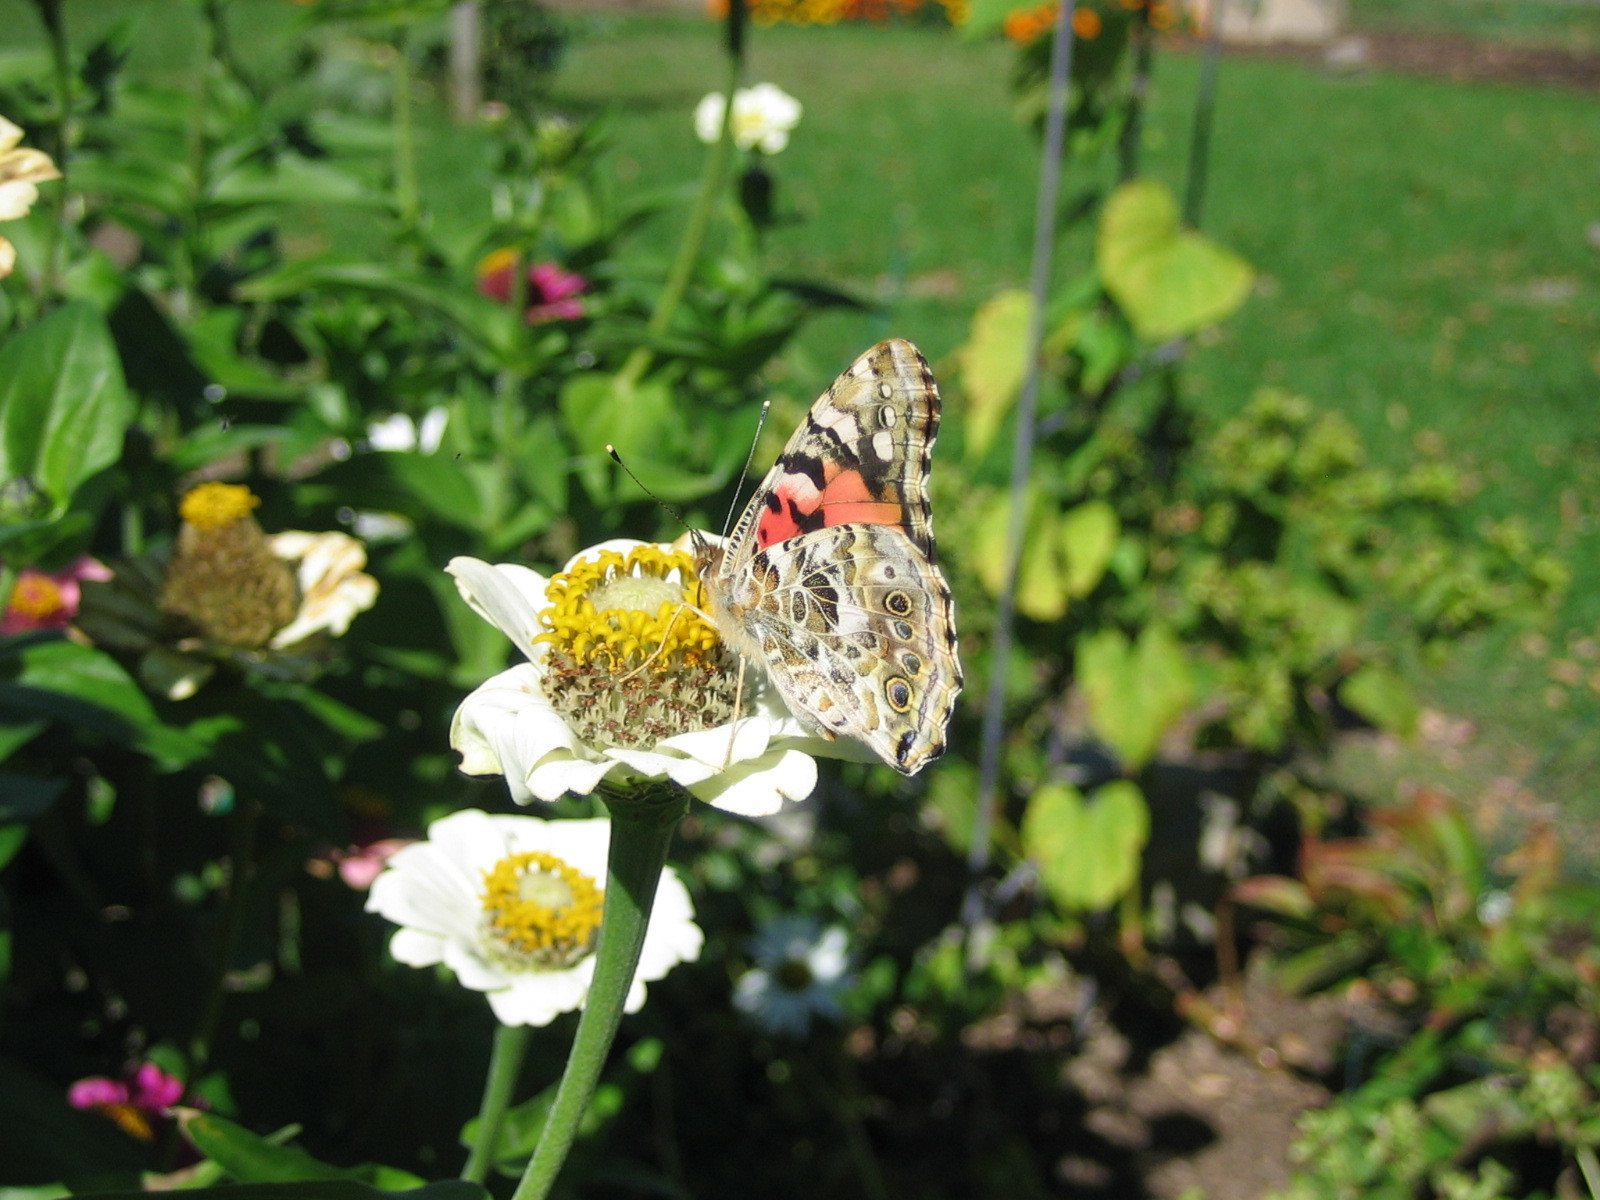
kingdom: Animalia
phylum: Arthropoda
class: Insecta
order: Lepidoptera
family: Nymphalidae
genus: Vanessa
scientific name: Vanessa cardui
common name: Painted lady
